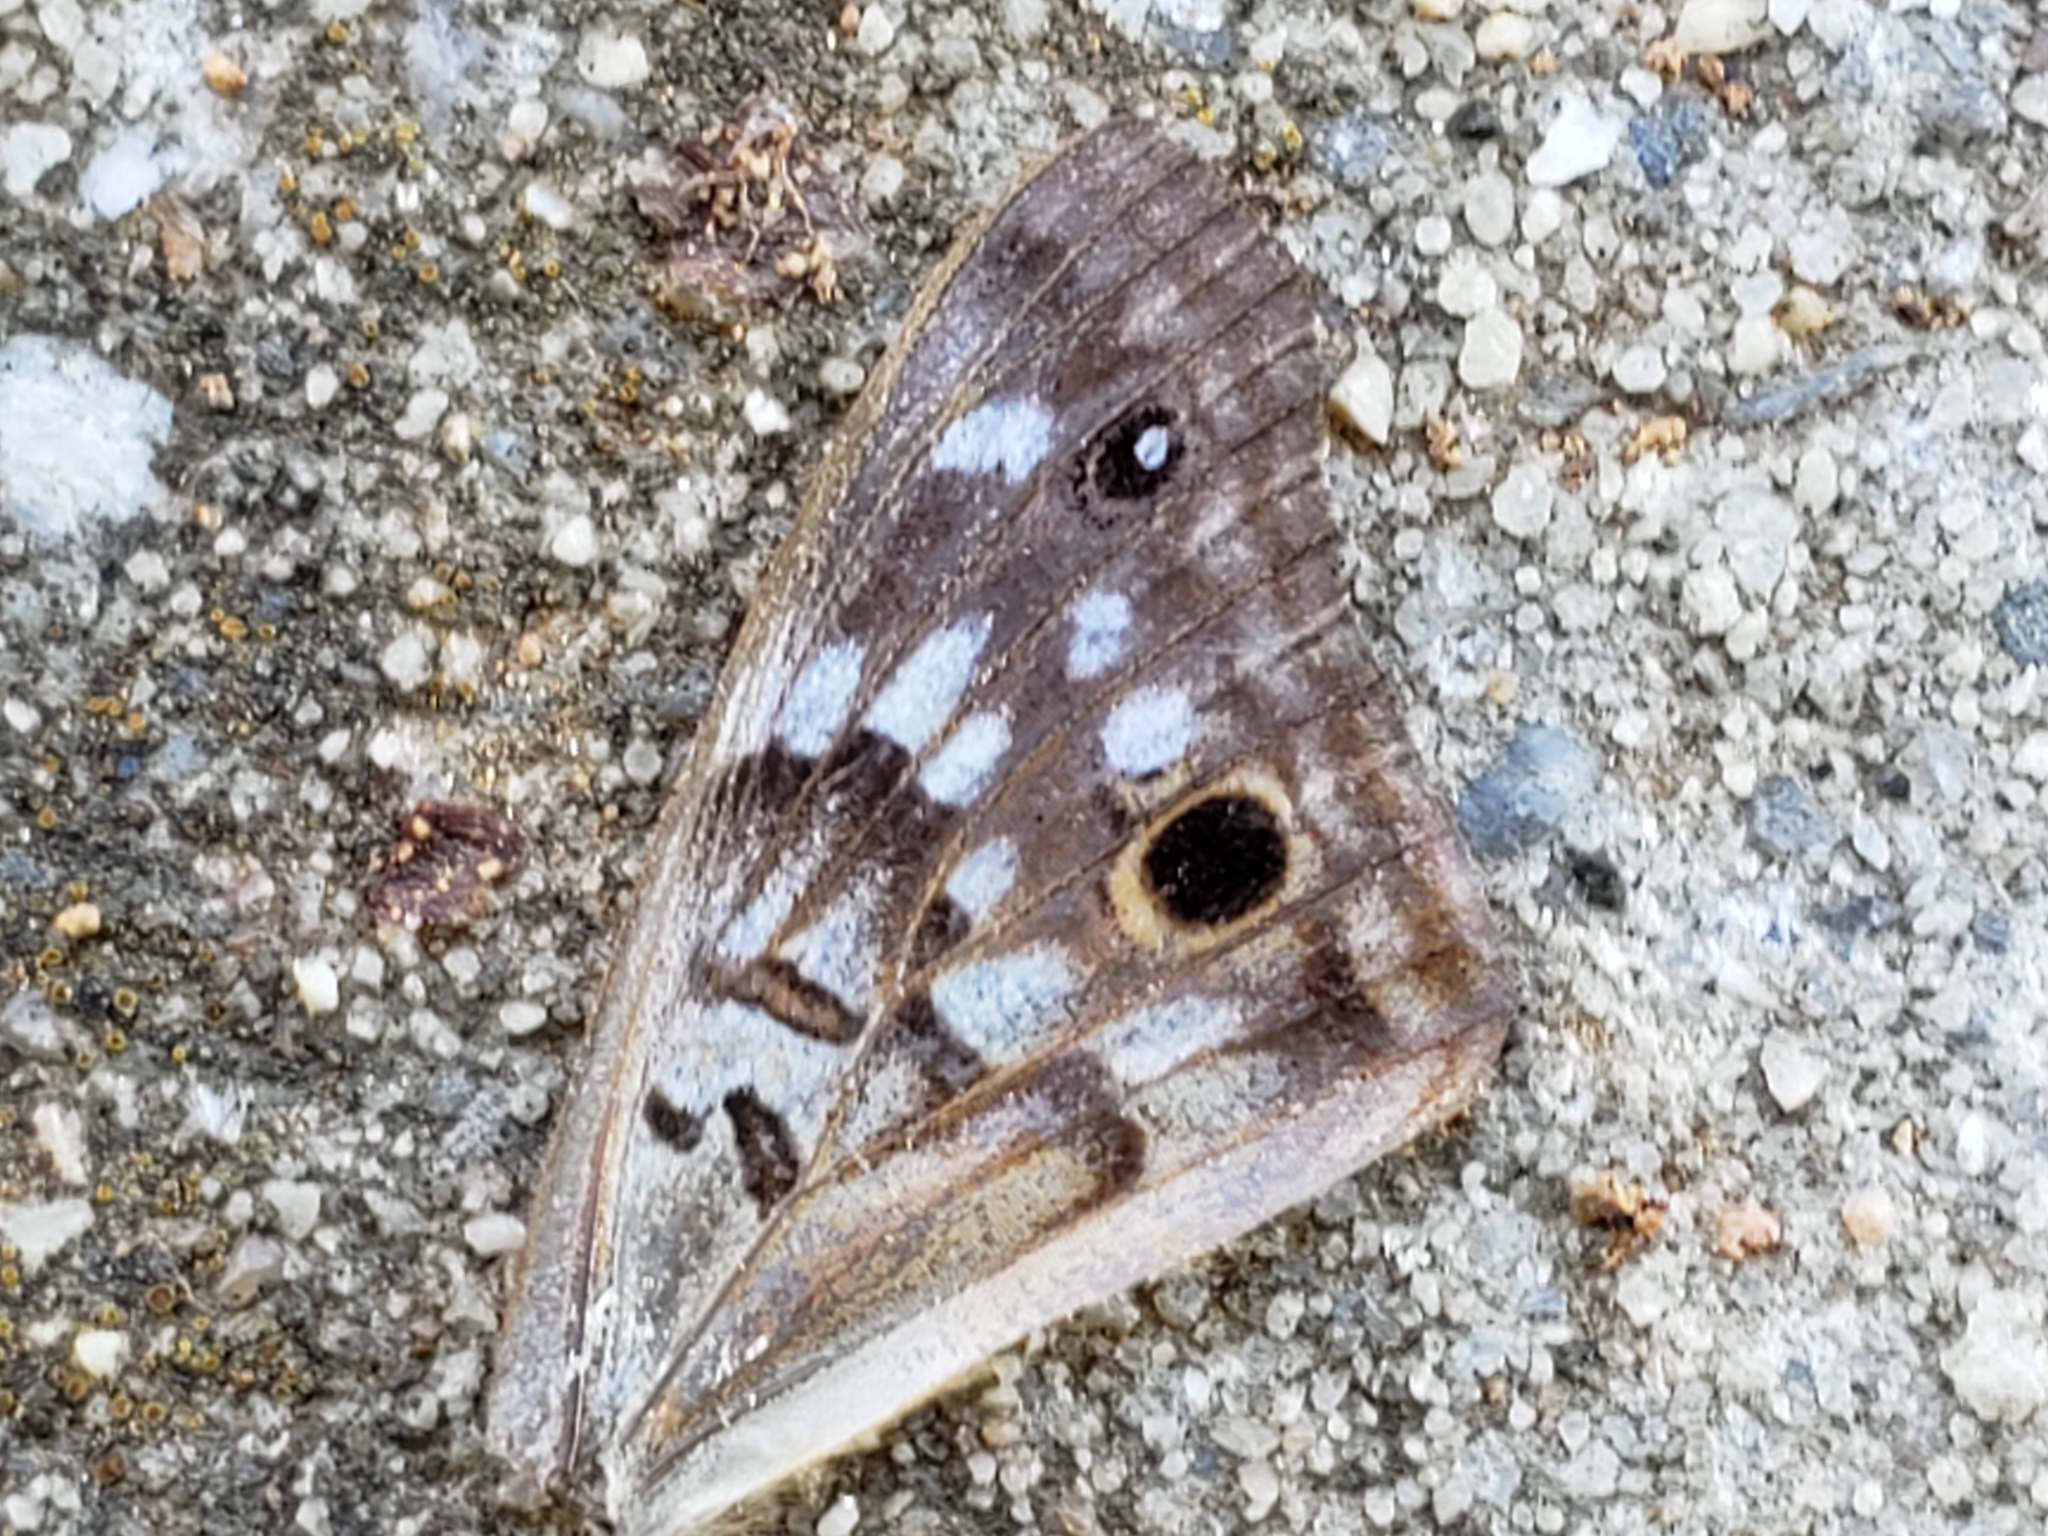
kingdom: Animalia
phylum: Arthropoda
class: Insecta
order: Lepidoptera
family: Nymphalidae
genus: Asterocampa
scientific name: Asterocampa celtis
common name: Hackberry emperor
